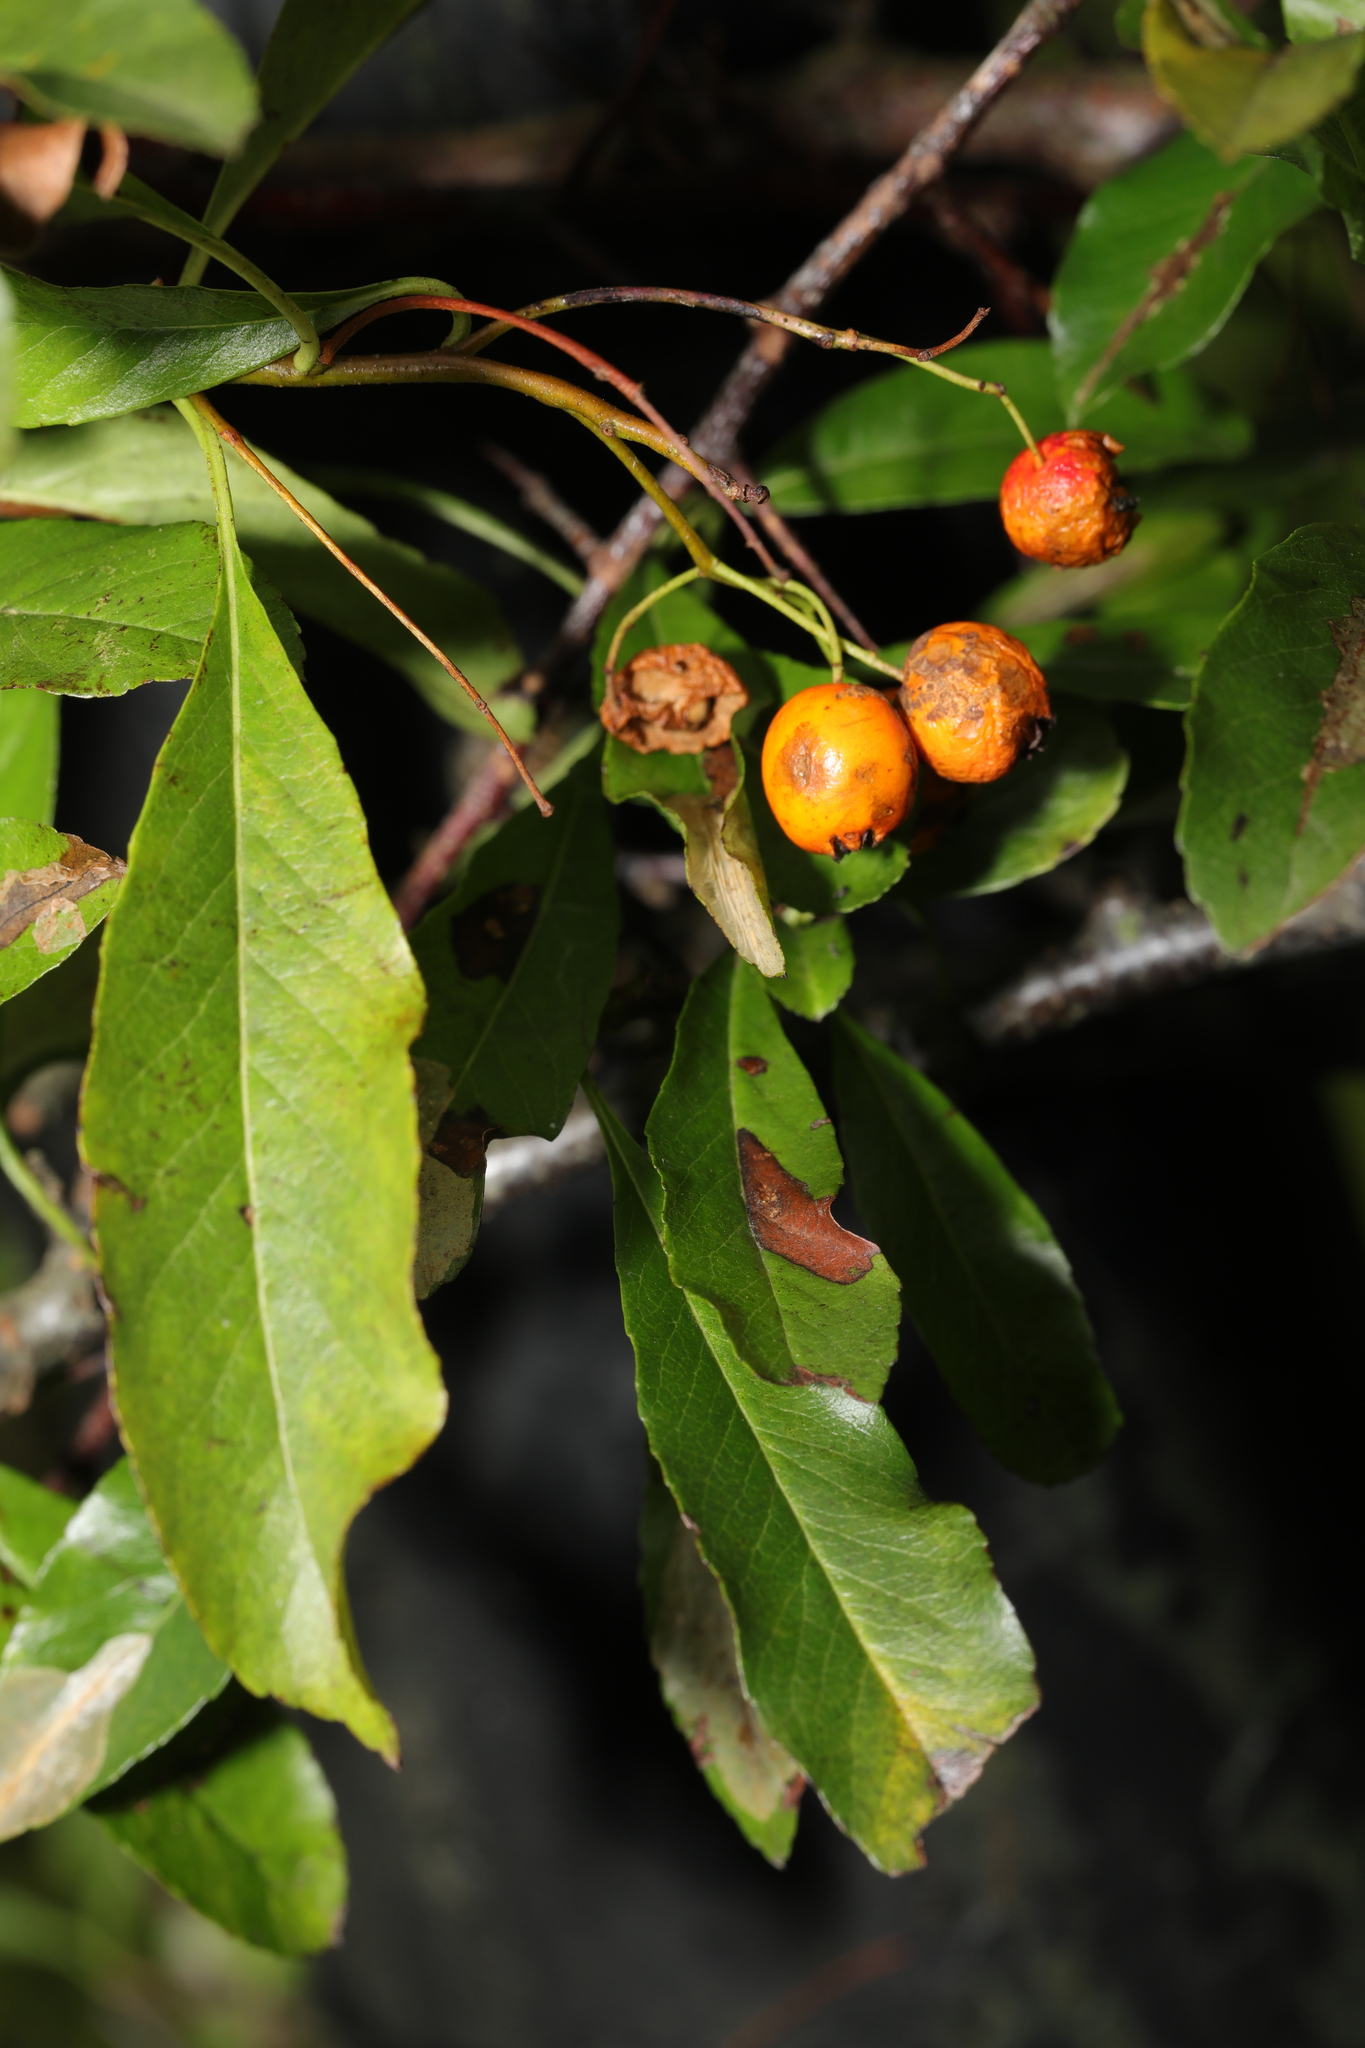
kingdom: Plantae
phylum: Tracheophyta
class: Magnoliopsida
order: Rosales
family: Rosaceae
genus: Pyracantha
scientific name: Pyracantha coccinea
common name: Firethorn
